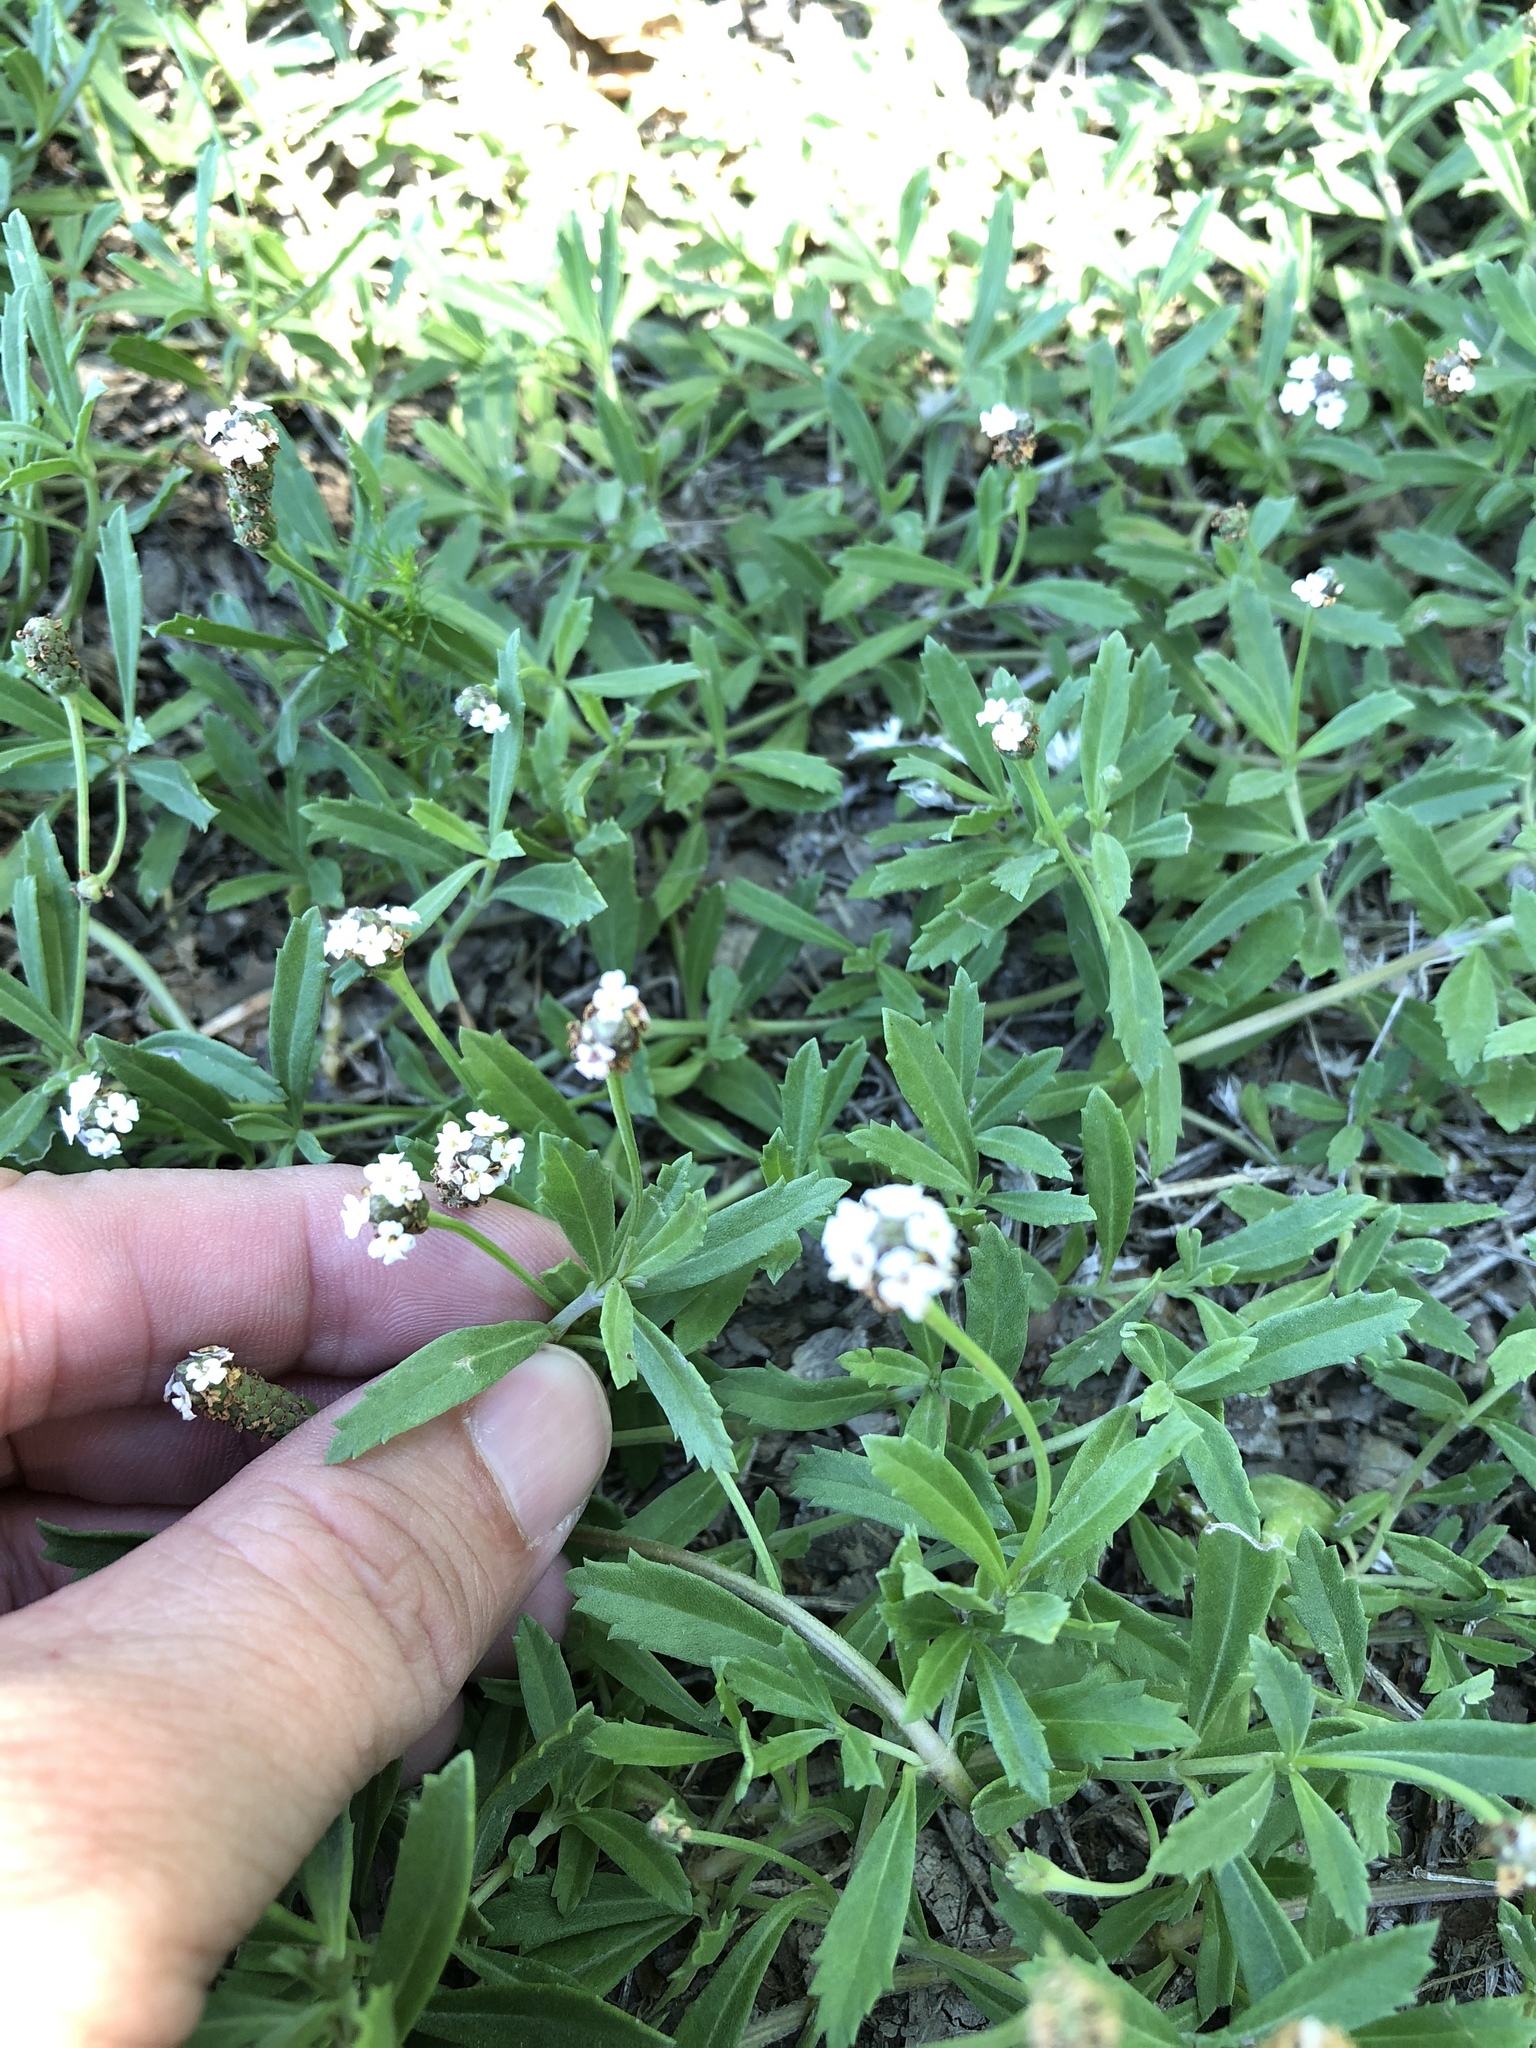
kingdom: Plantae
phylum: Tracheophyta
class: Magnoliopsida
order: Lamiales
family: Verbenaceae
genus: Phyla
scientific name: Phyla nodiflora
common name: Frogfruit
